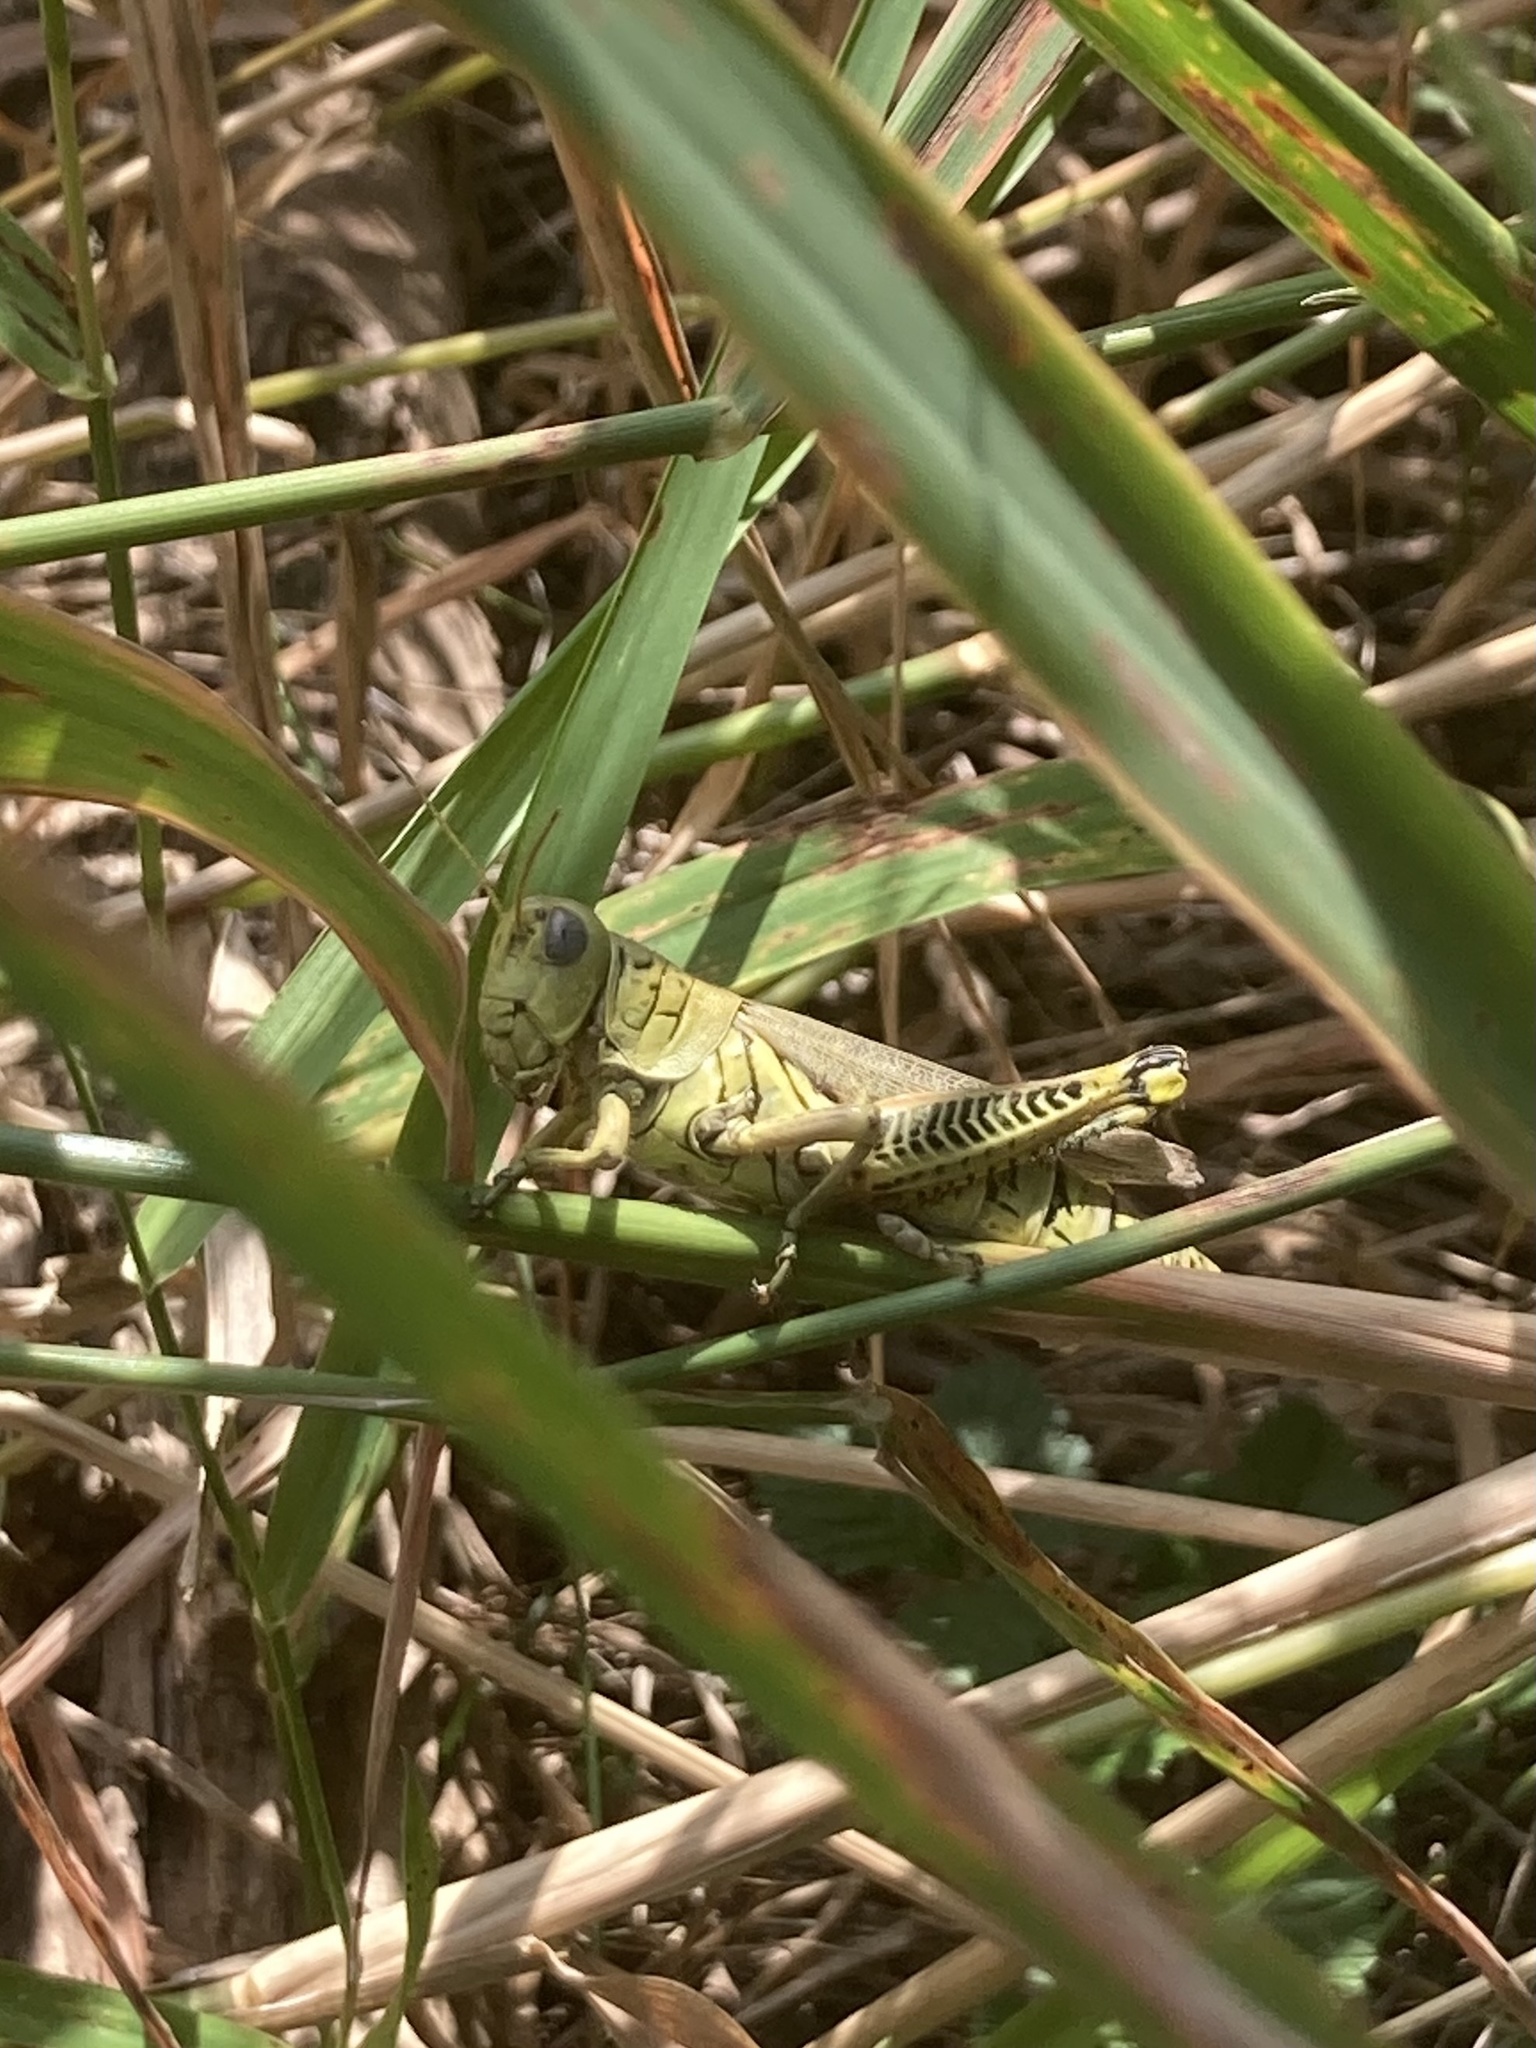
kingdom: Animalia
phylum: Arthropoda
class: Insecta
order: Orthoptera
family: Acrididae
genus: Melanoplus
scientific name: Melanoplus differentialis
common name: Differential grasshopper
